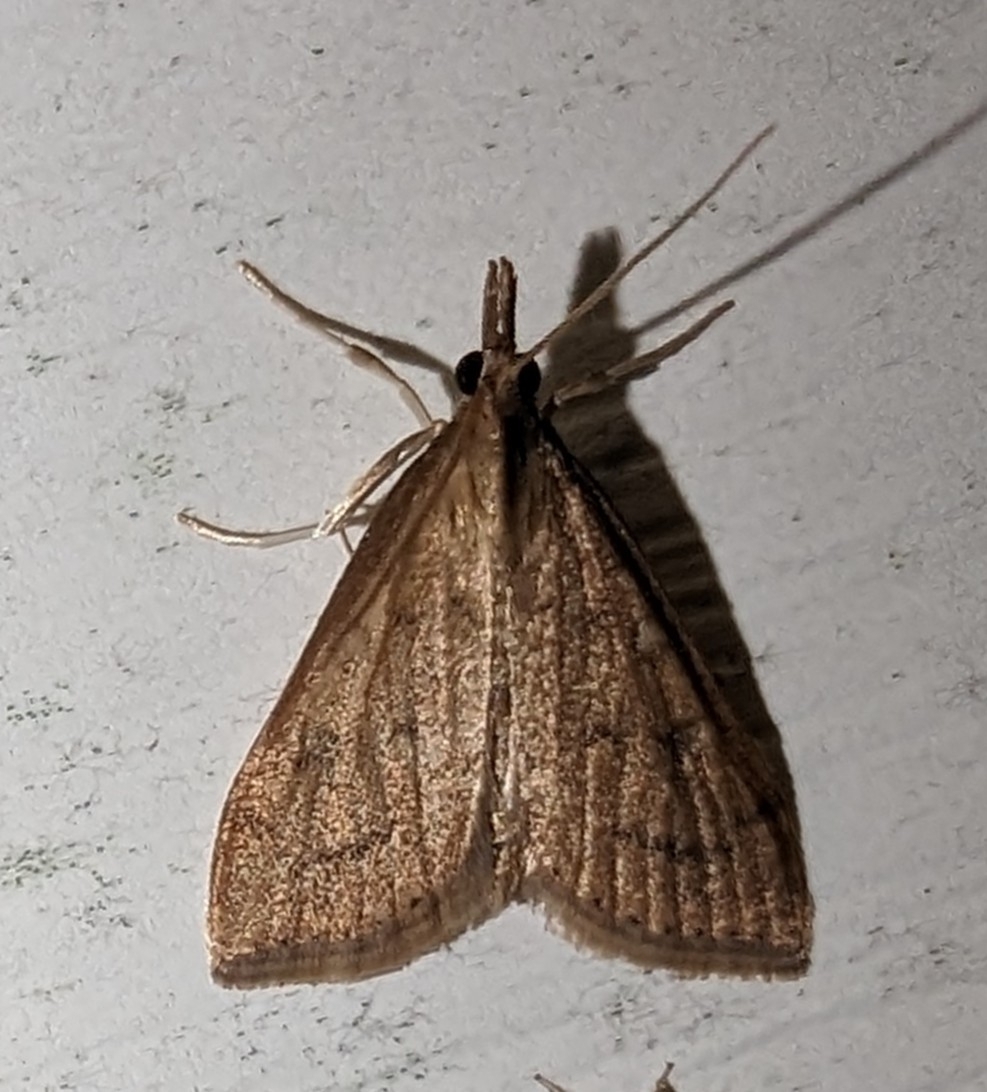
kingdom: Animalia
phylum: Arthropoda
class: Insecta
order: Lepidoptera
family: Crambidae
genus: Udea
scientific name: Udea rubigalis
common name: Celery leaftier moth
